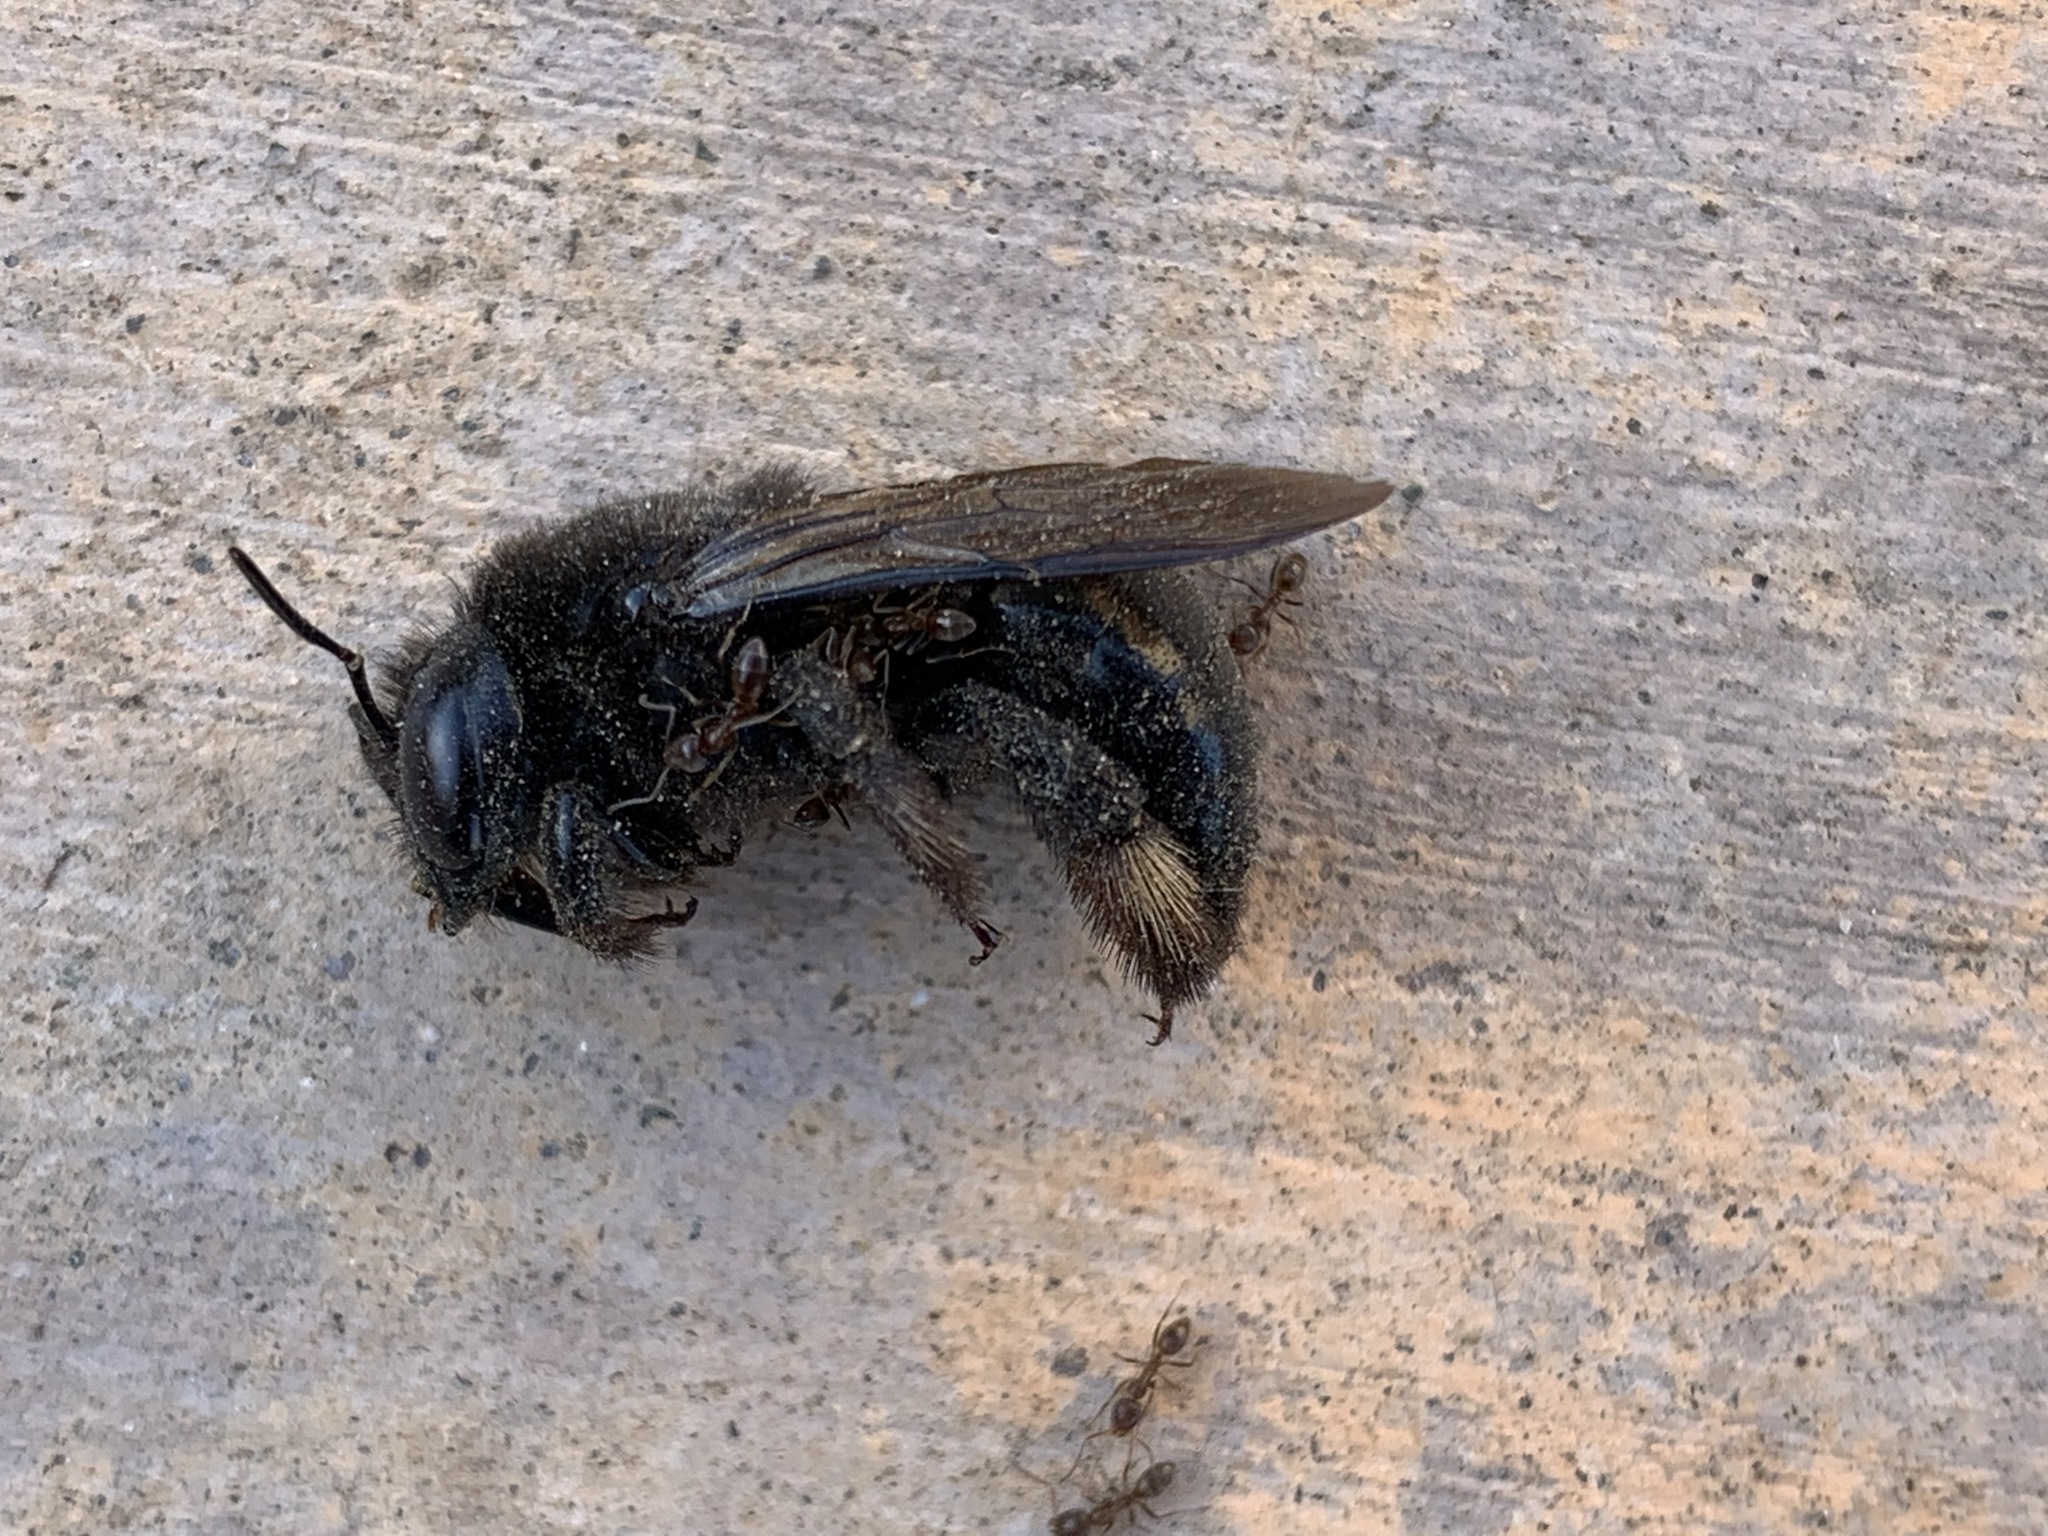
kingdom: Animalia
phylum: Arthropoda
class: Insecta
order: Hymenoptera
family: Apidae
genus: Xylocopa
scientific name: Xylocopa tabaniformis
